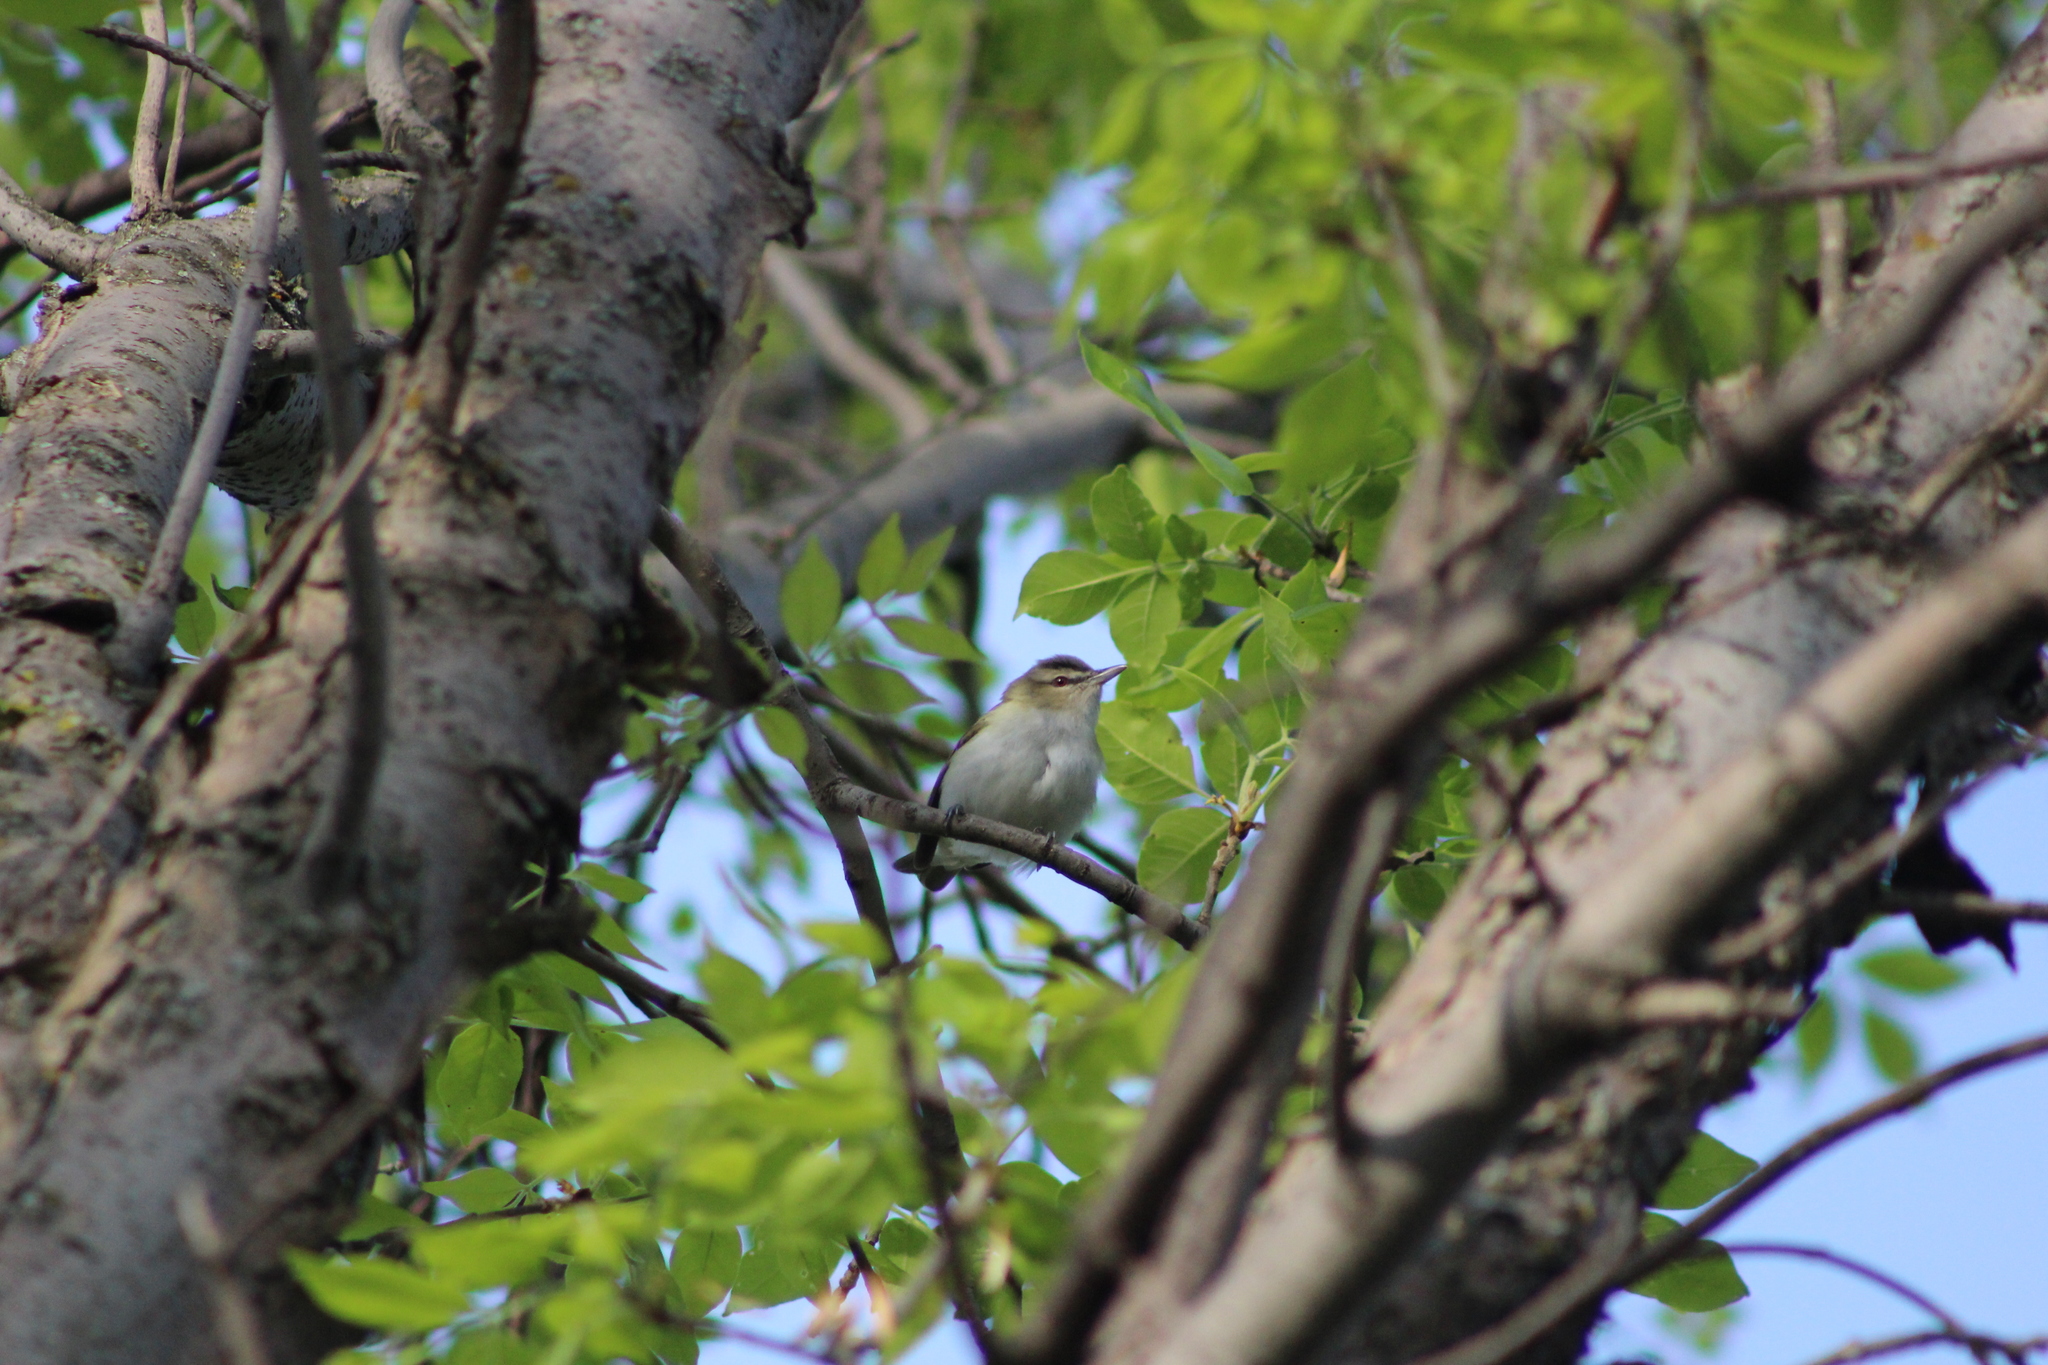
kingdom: Animalia
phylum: Chordata
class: Aves
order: Passeriformes
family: Vireonidae
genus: Vireo
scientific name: Vireo olivaceus
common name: Red-eyed vireo
